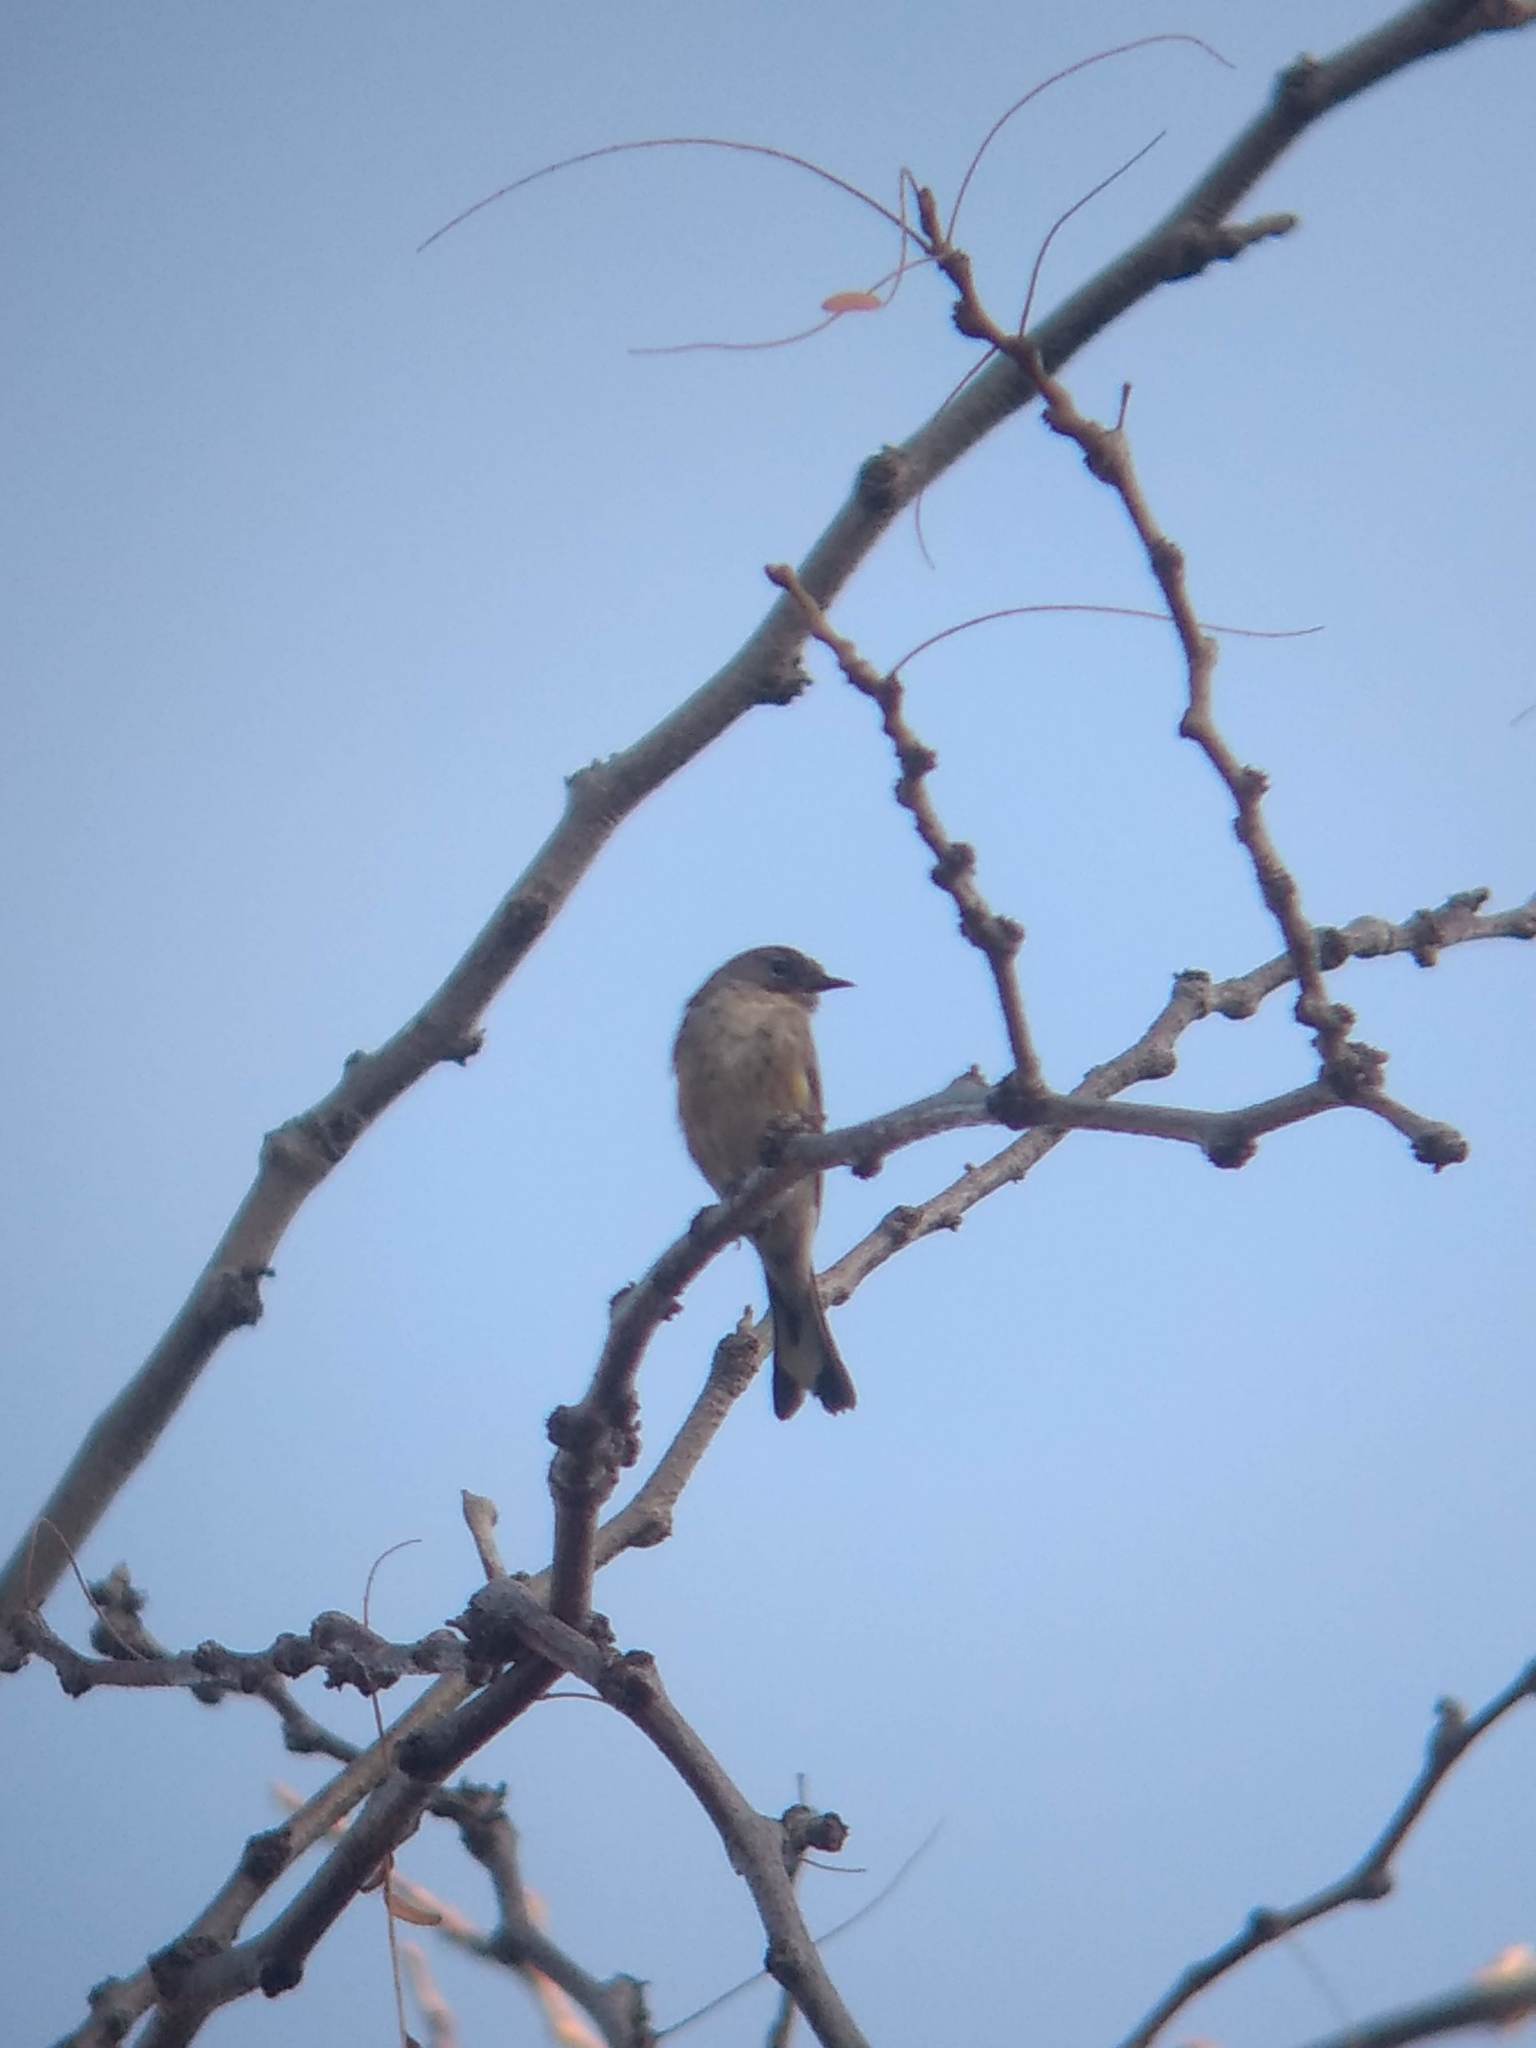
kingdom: Animalia
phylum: Chordata
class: Aves
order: Passeriformes
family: Parulidae
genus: Setophaga
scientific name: Setophaga coronata
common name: Myrtle warbler
